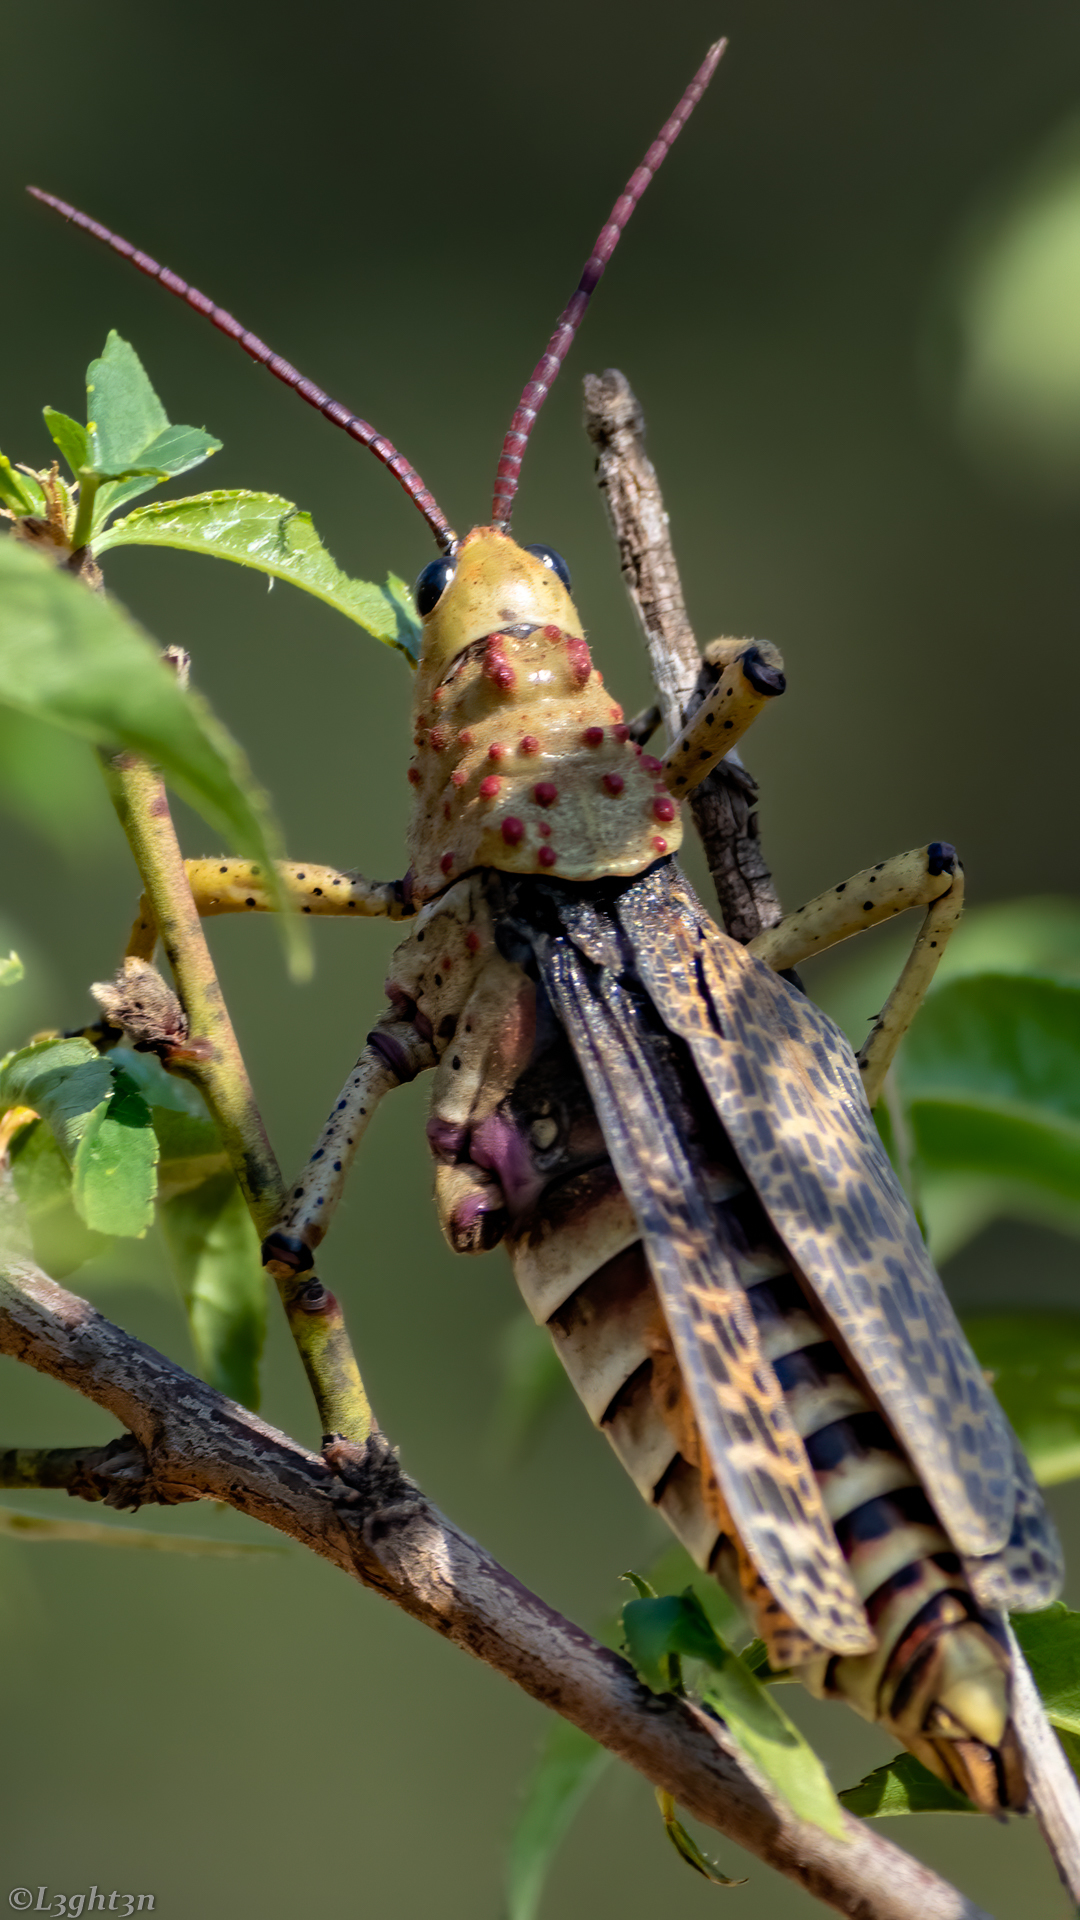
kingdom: Animalia
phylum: Arthropoda
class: Insecta
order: Orthoptera
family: Pyrgomorphidae
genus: Phymateus
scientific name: Phymateus baccatus
